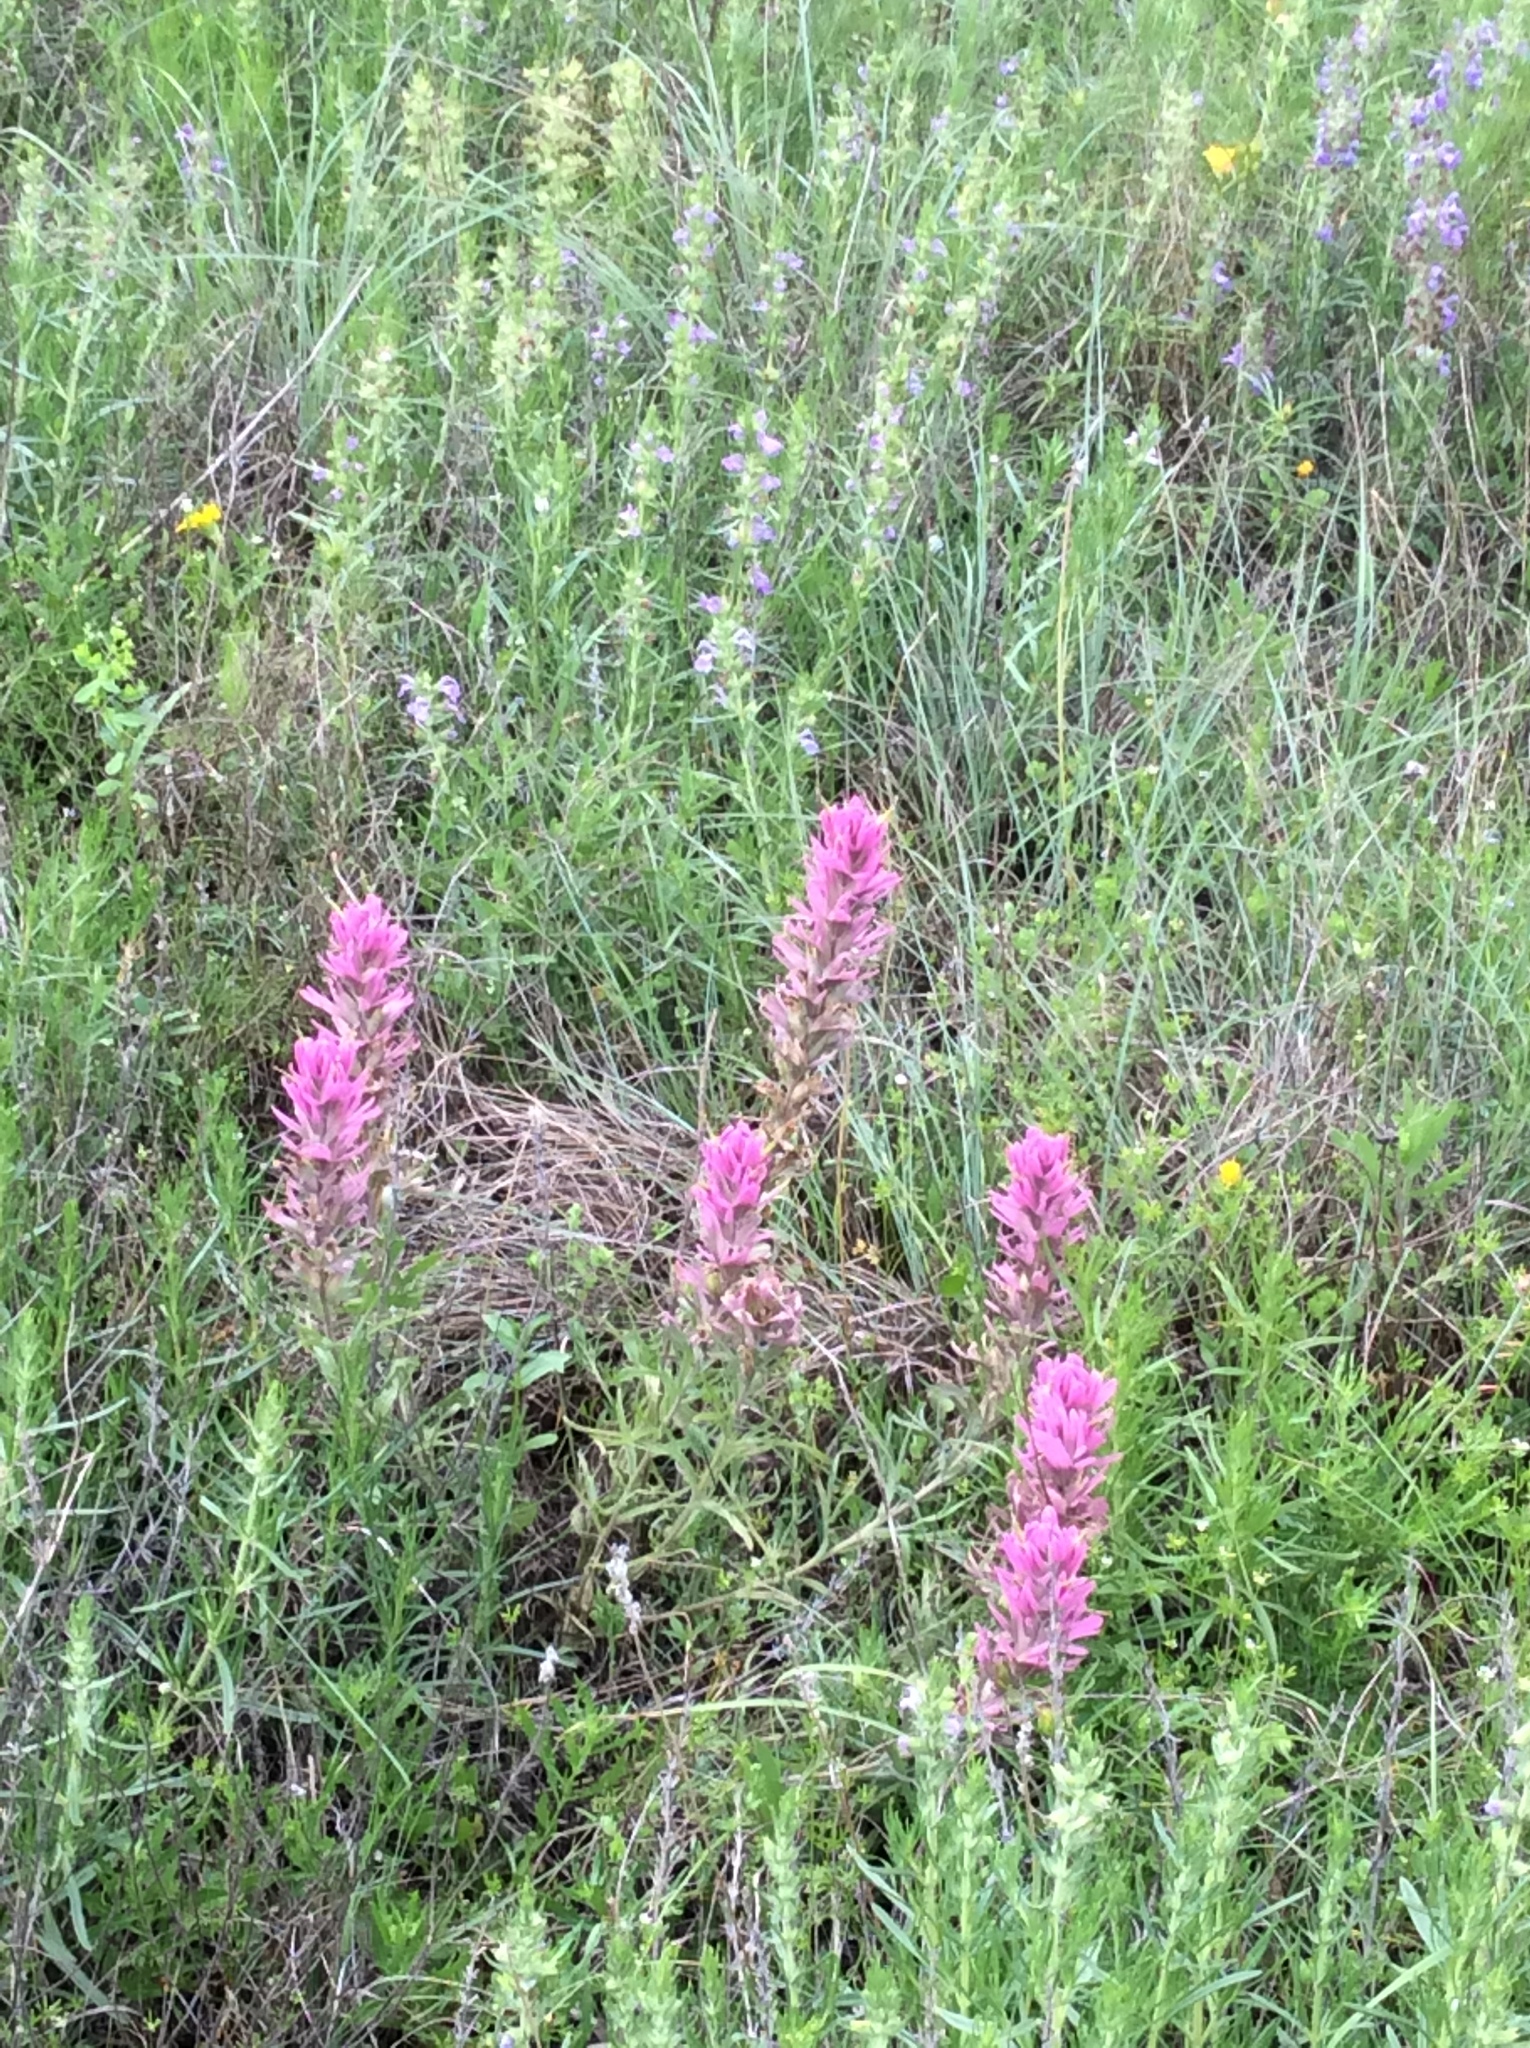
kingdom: Plantae
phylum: Tracheophyta
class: Magnoliopsida
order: Lamiales
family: Orobanchaceae
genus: Castilleja
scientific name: Castilleja purpurea
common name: Plains paintbrush
